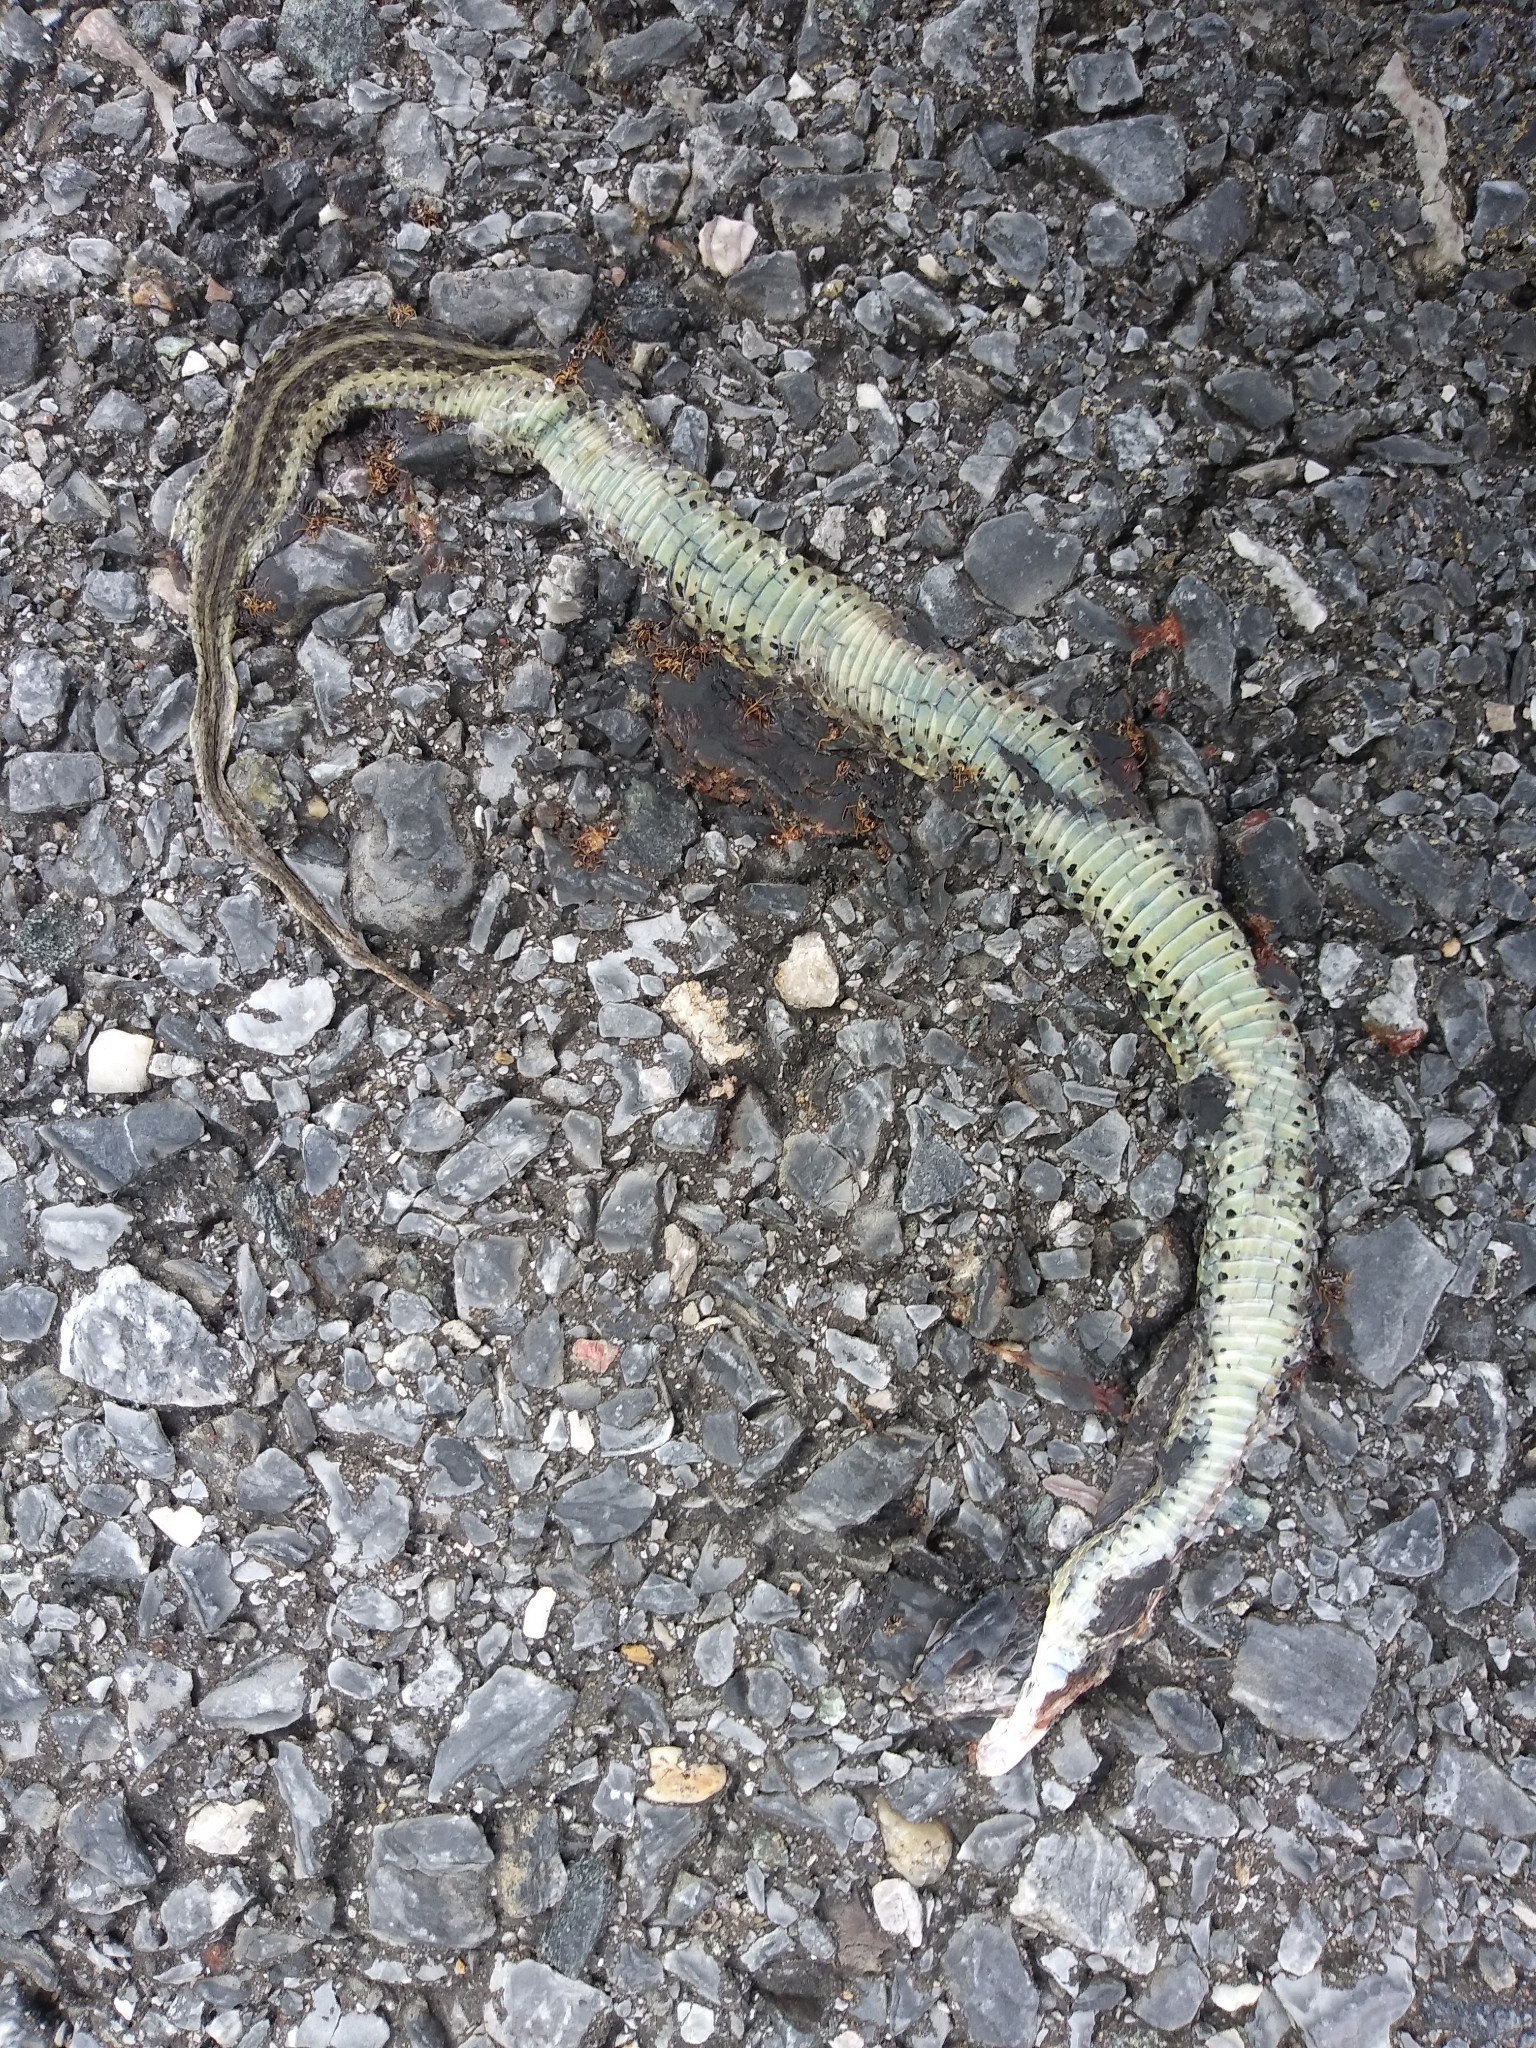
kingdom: Animalia
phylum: Chordata
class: Squamata
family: Colubridae
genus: Thamnophis
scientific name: Thamnophis sirtalis
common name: Common garter snake
